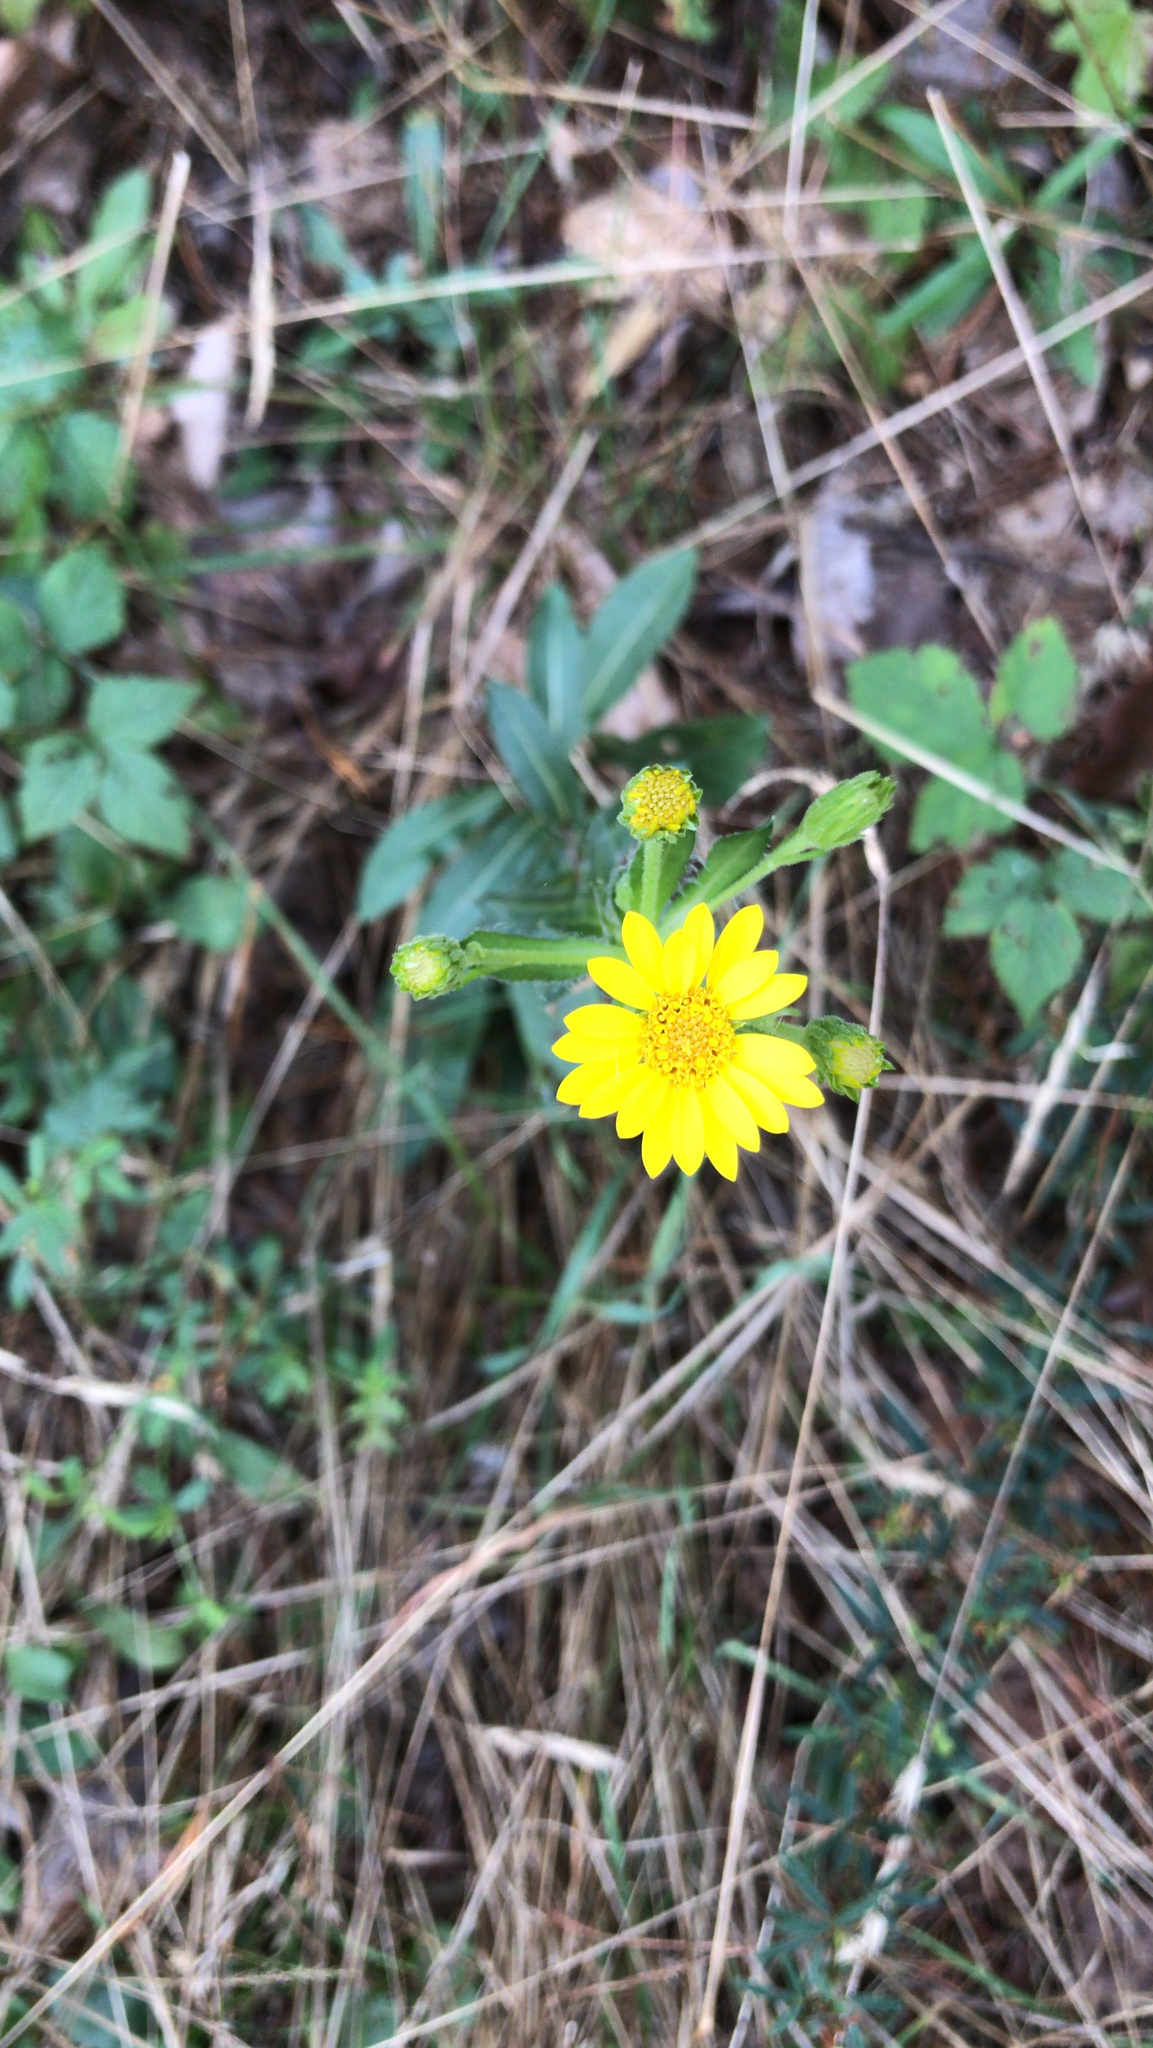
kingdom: Plantae
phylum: Tracheophyta
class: Magnoliopsida
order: Asterales
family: Asteraceae
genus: Chrysopsis
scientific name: Chrysopsis mariana
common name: Maryland golden-aster
